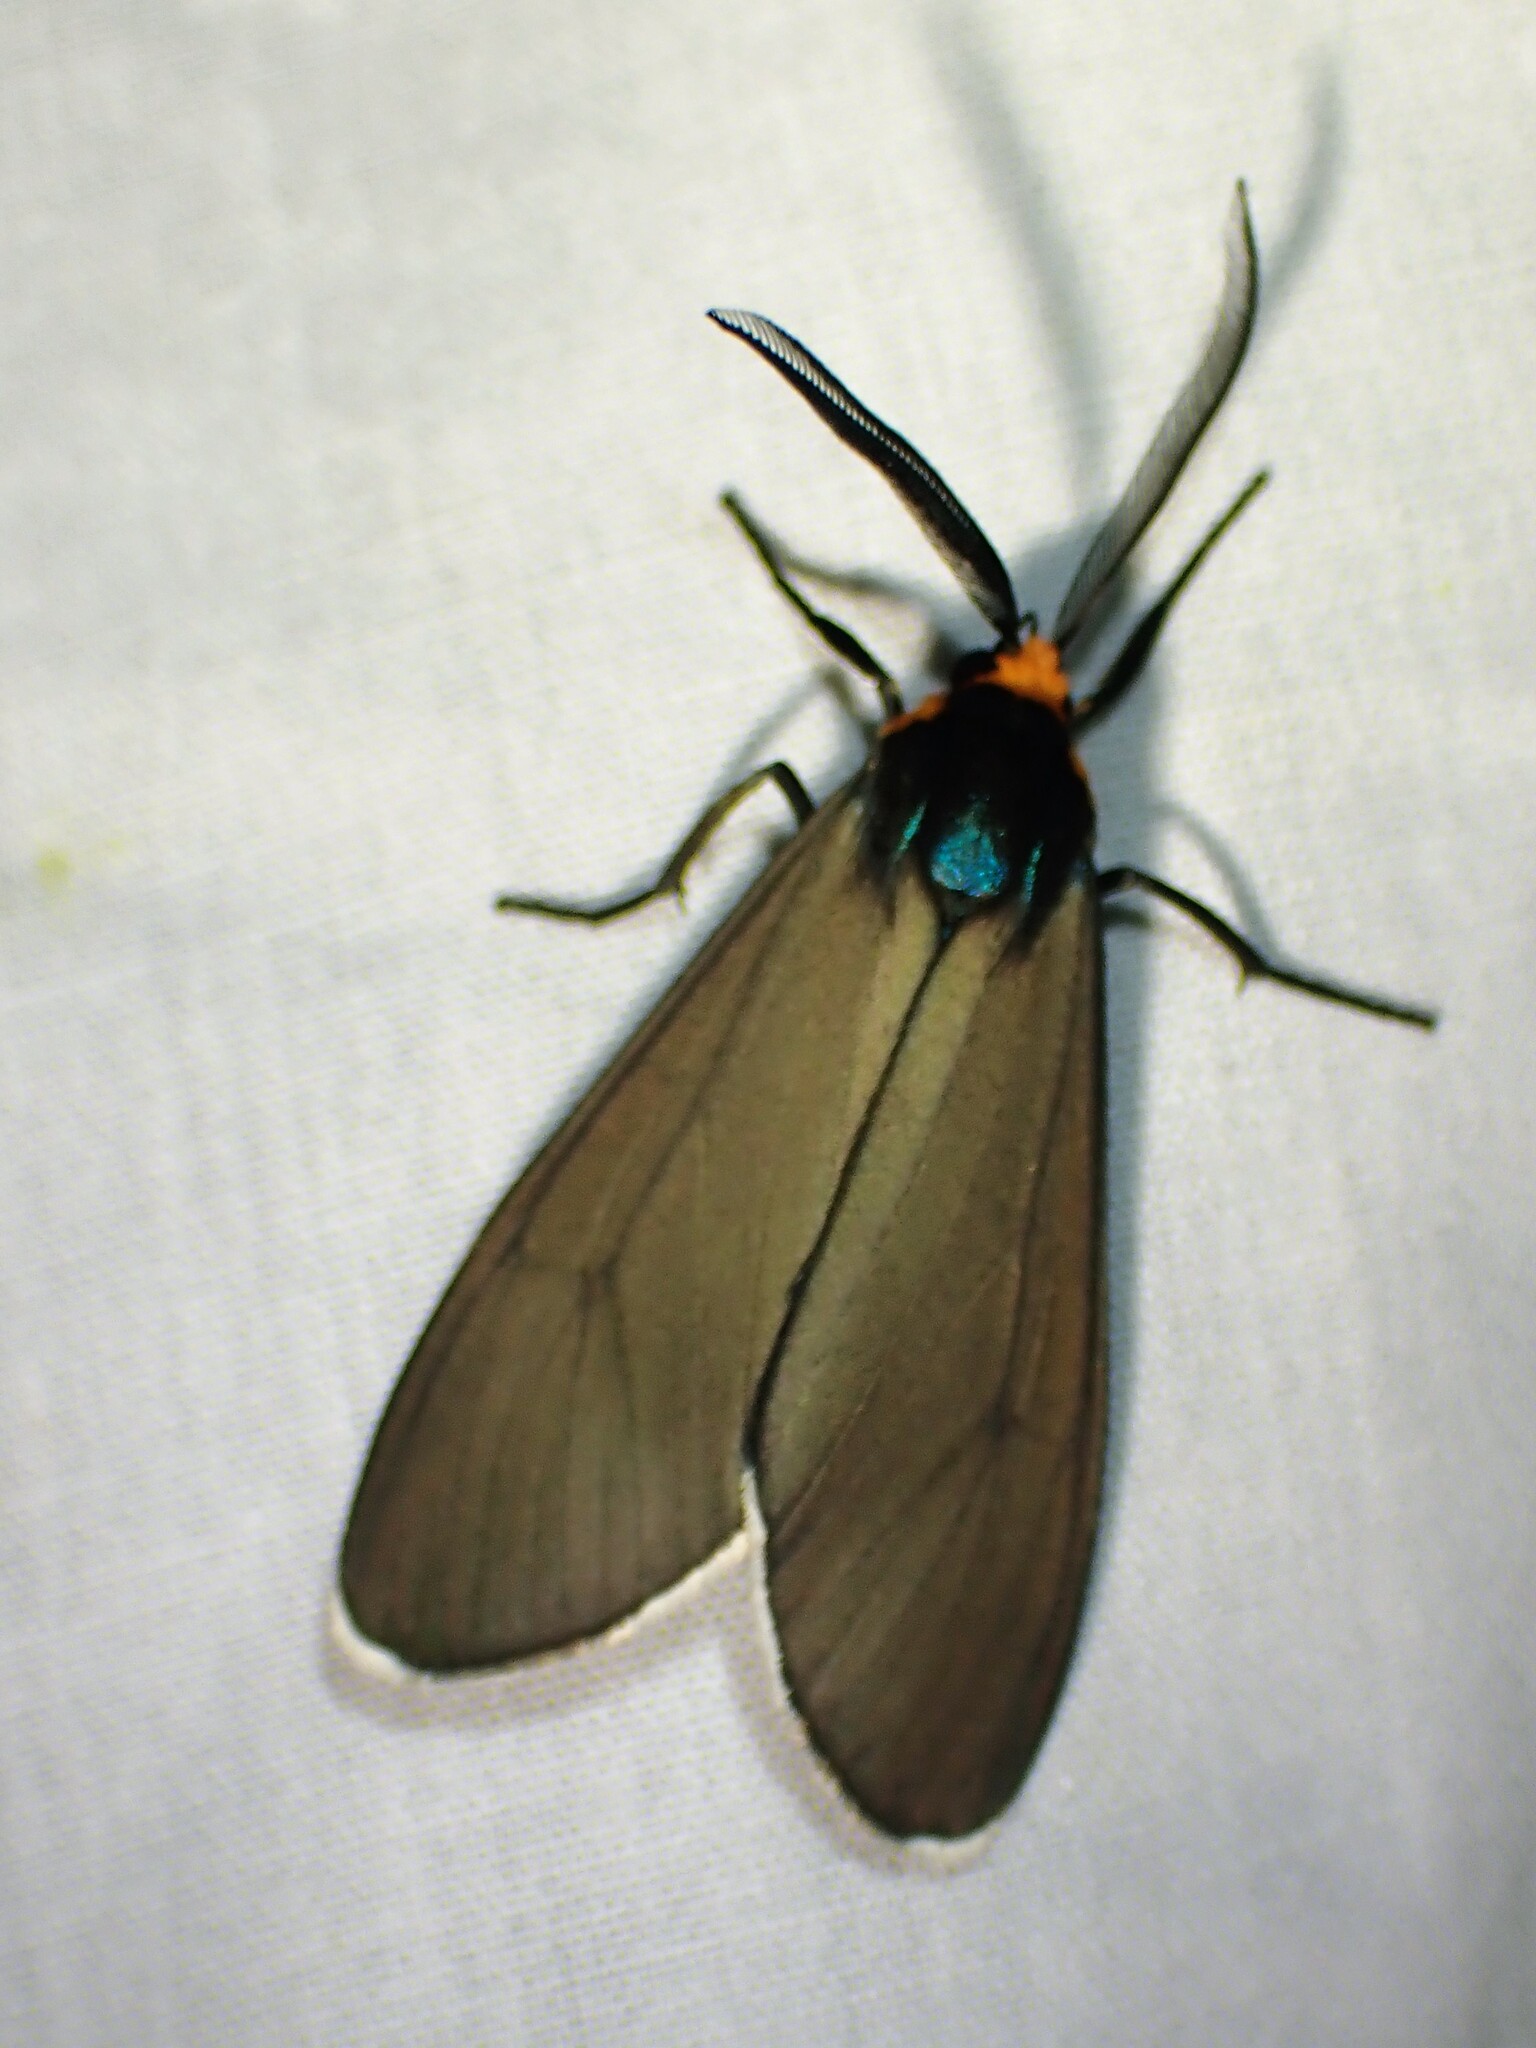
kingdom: Animalia
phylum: Arthropoda
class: Insecta
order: Lepidoptera
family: Erebidae
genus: Ctenucha
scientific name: Ctenucha virginica
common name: Virginia ctenucha moth
